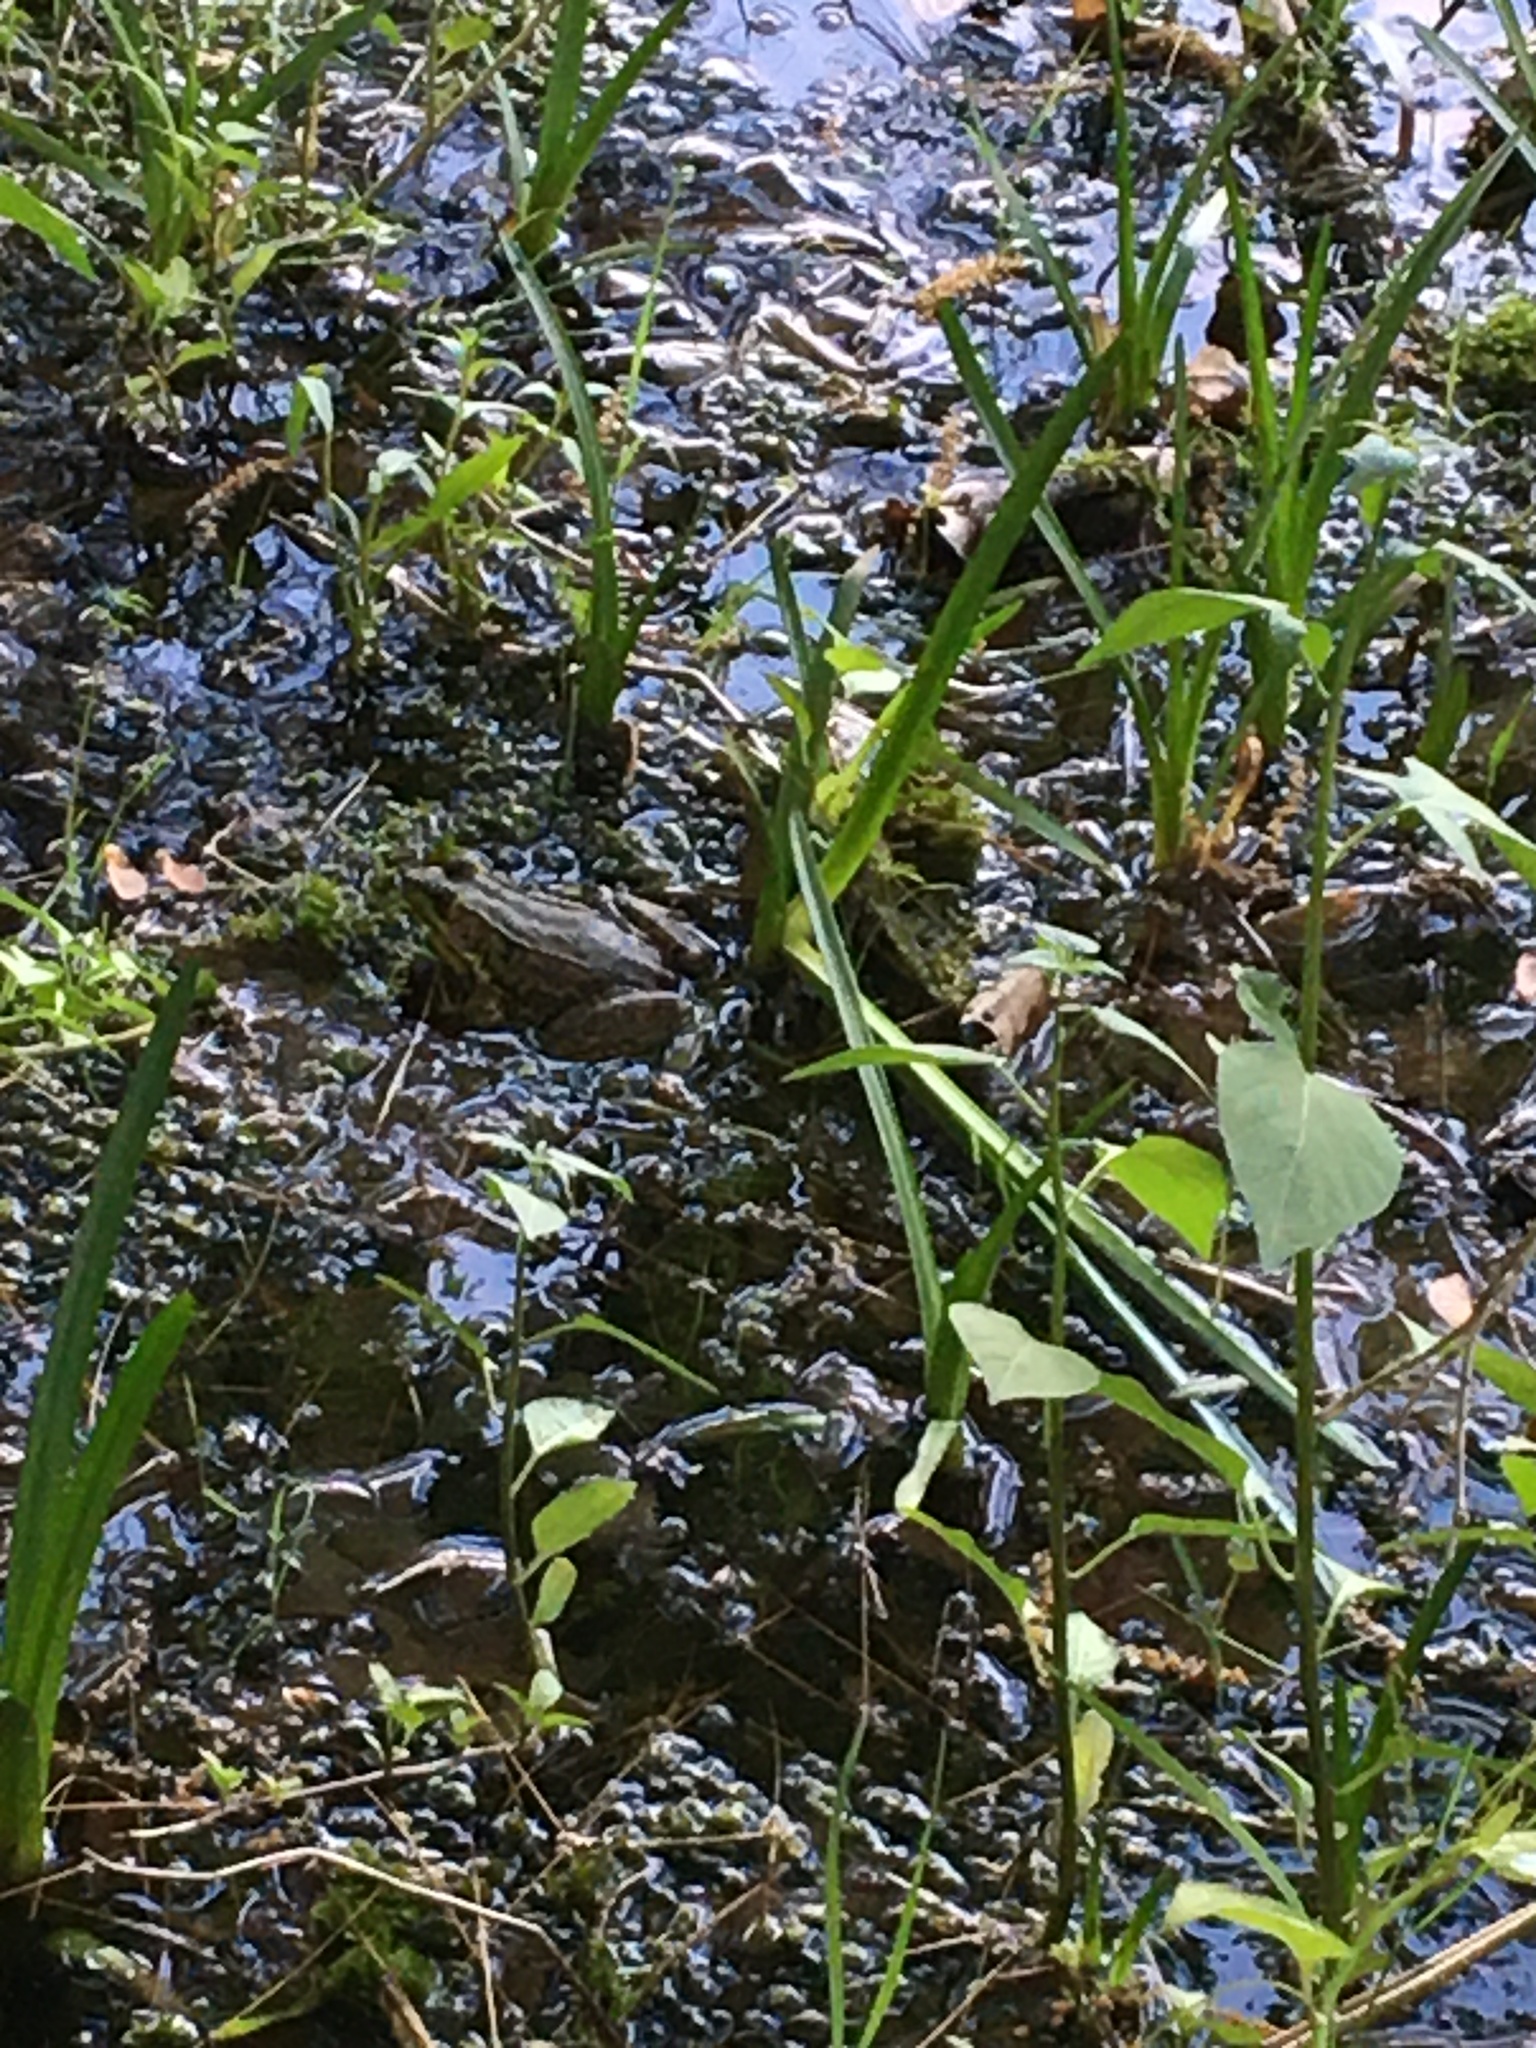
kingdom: Animalia
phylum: Chordata
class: Amphibia
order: Anura
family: Ranidae
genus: Lithobates
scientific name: Lithobates clamitans
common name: Green frog
